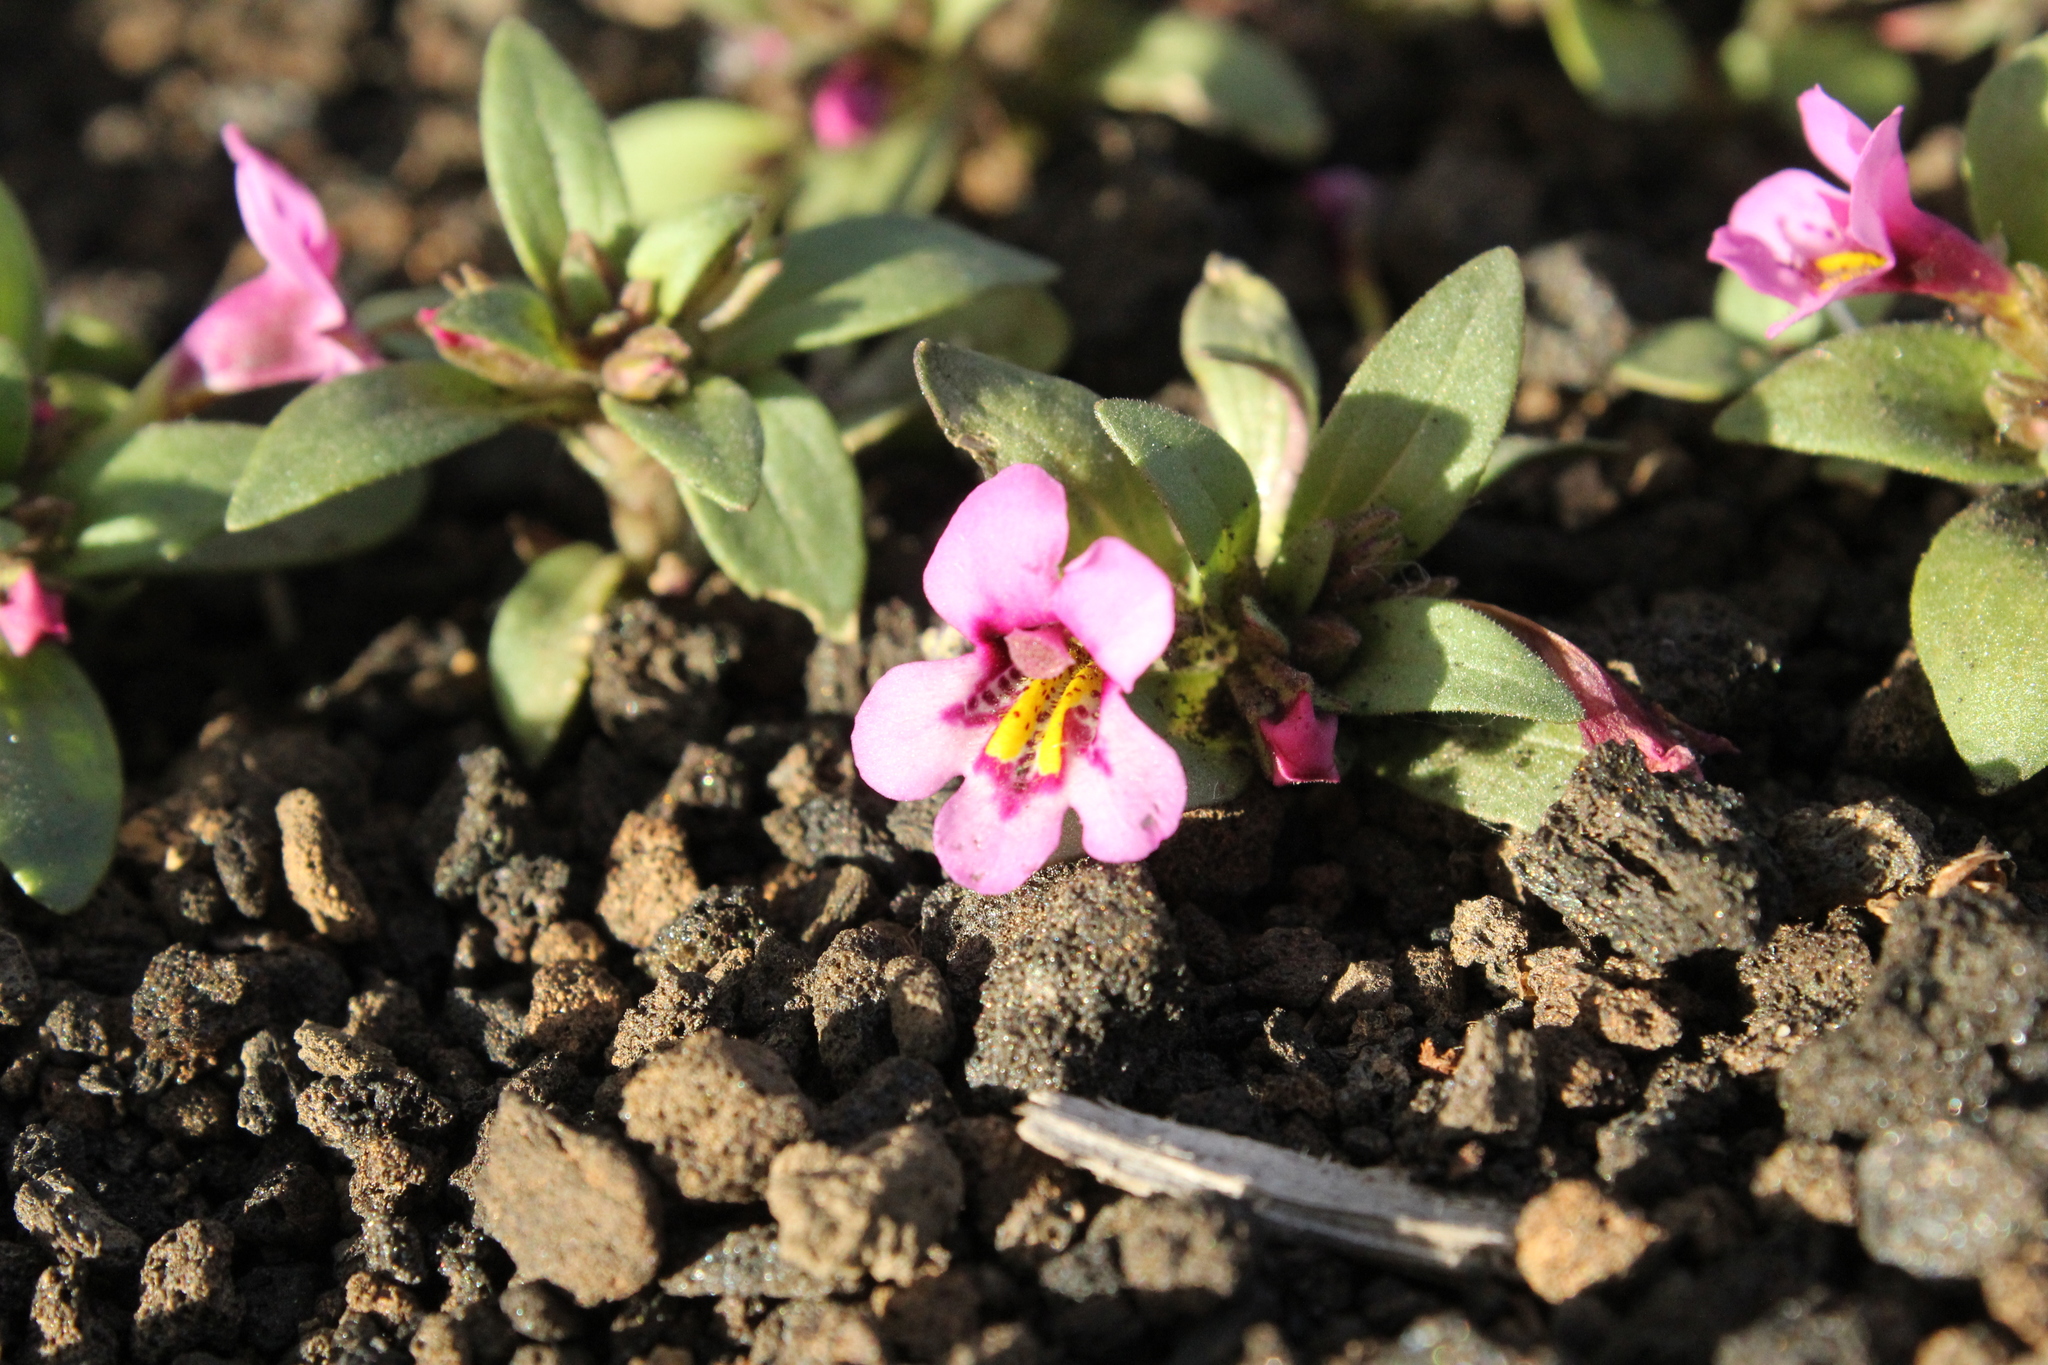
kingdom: Plantae
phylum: Tracheophyta
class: Magnoliopsida
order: Lamiales
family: Phrymaceae
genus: Diplacus
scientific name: Diplacus nanus
